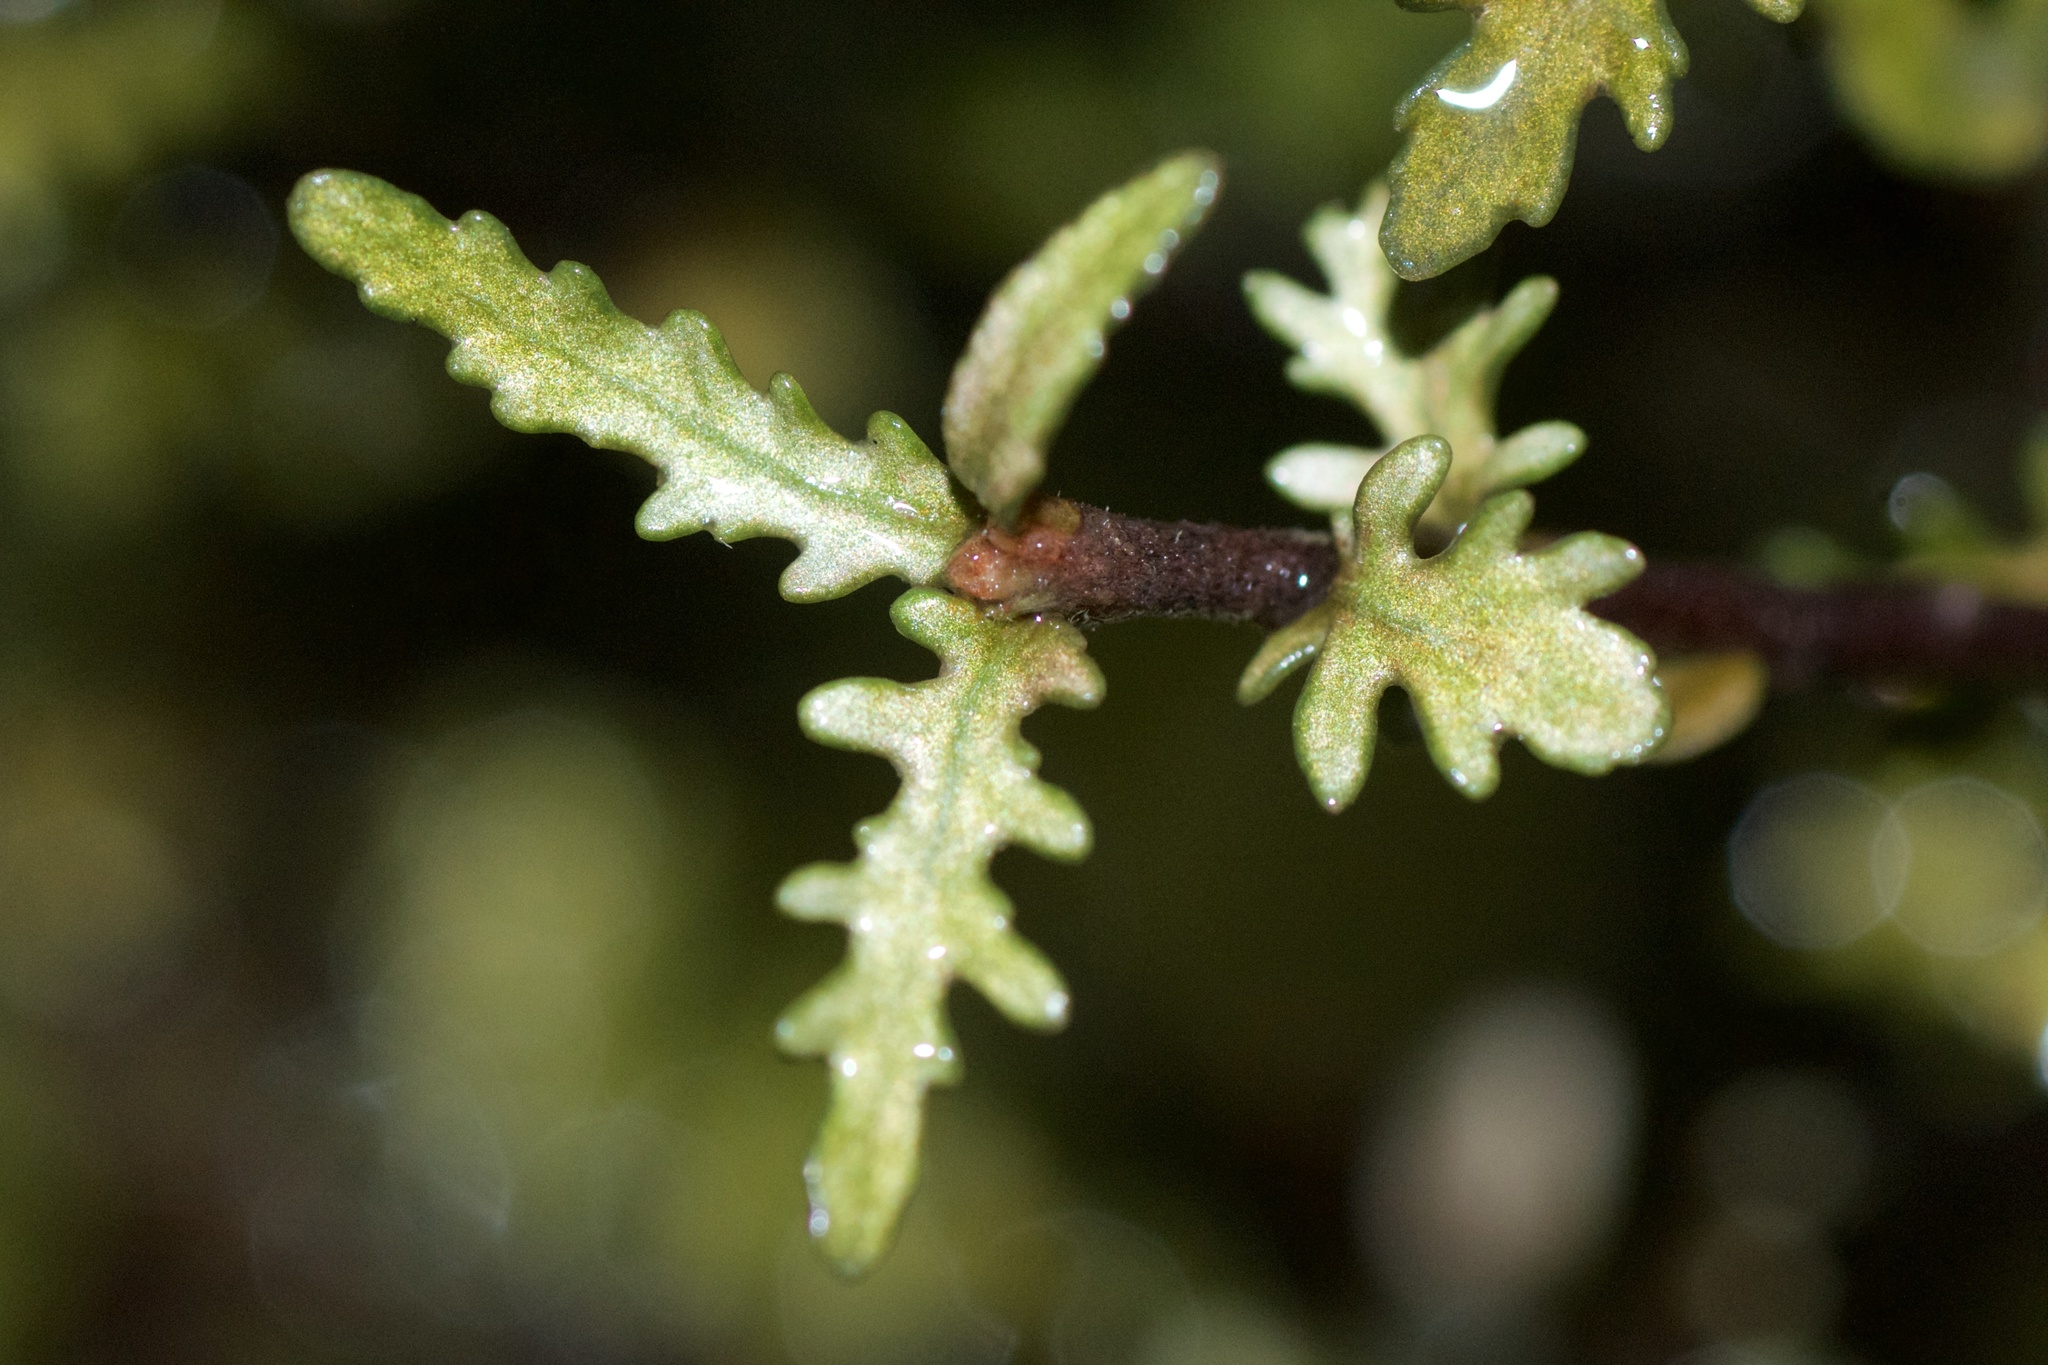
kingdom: Plantae
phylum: Tracheophyta
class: Magnoliopsida
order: Apiales
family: Pittosporaceae
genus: Pittosporum
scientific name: Pittosporum rigidum
